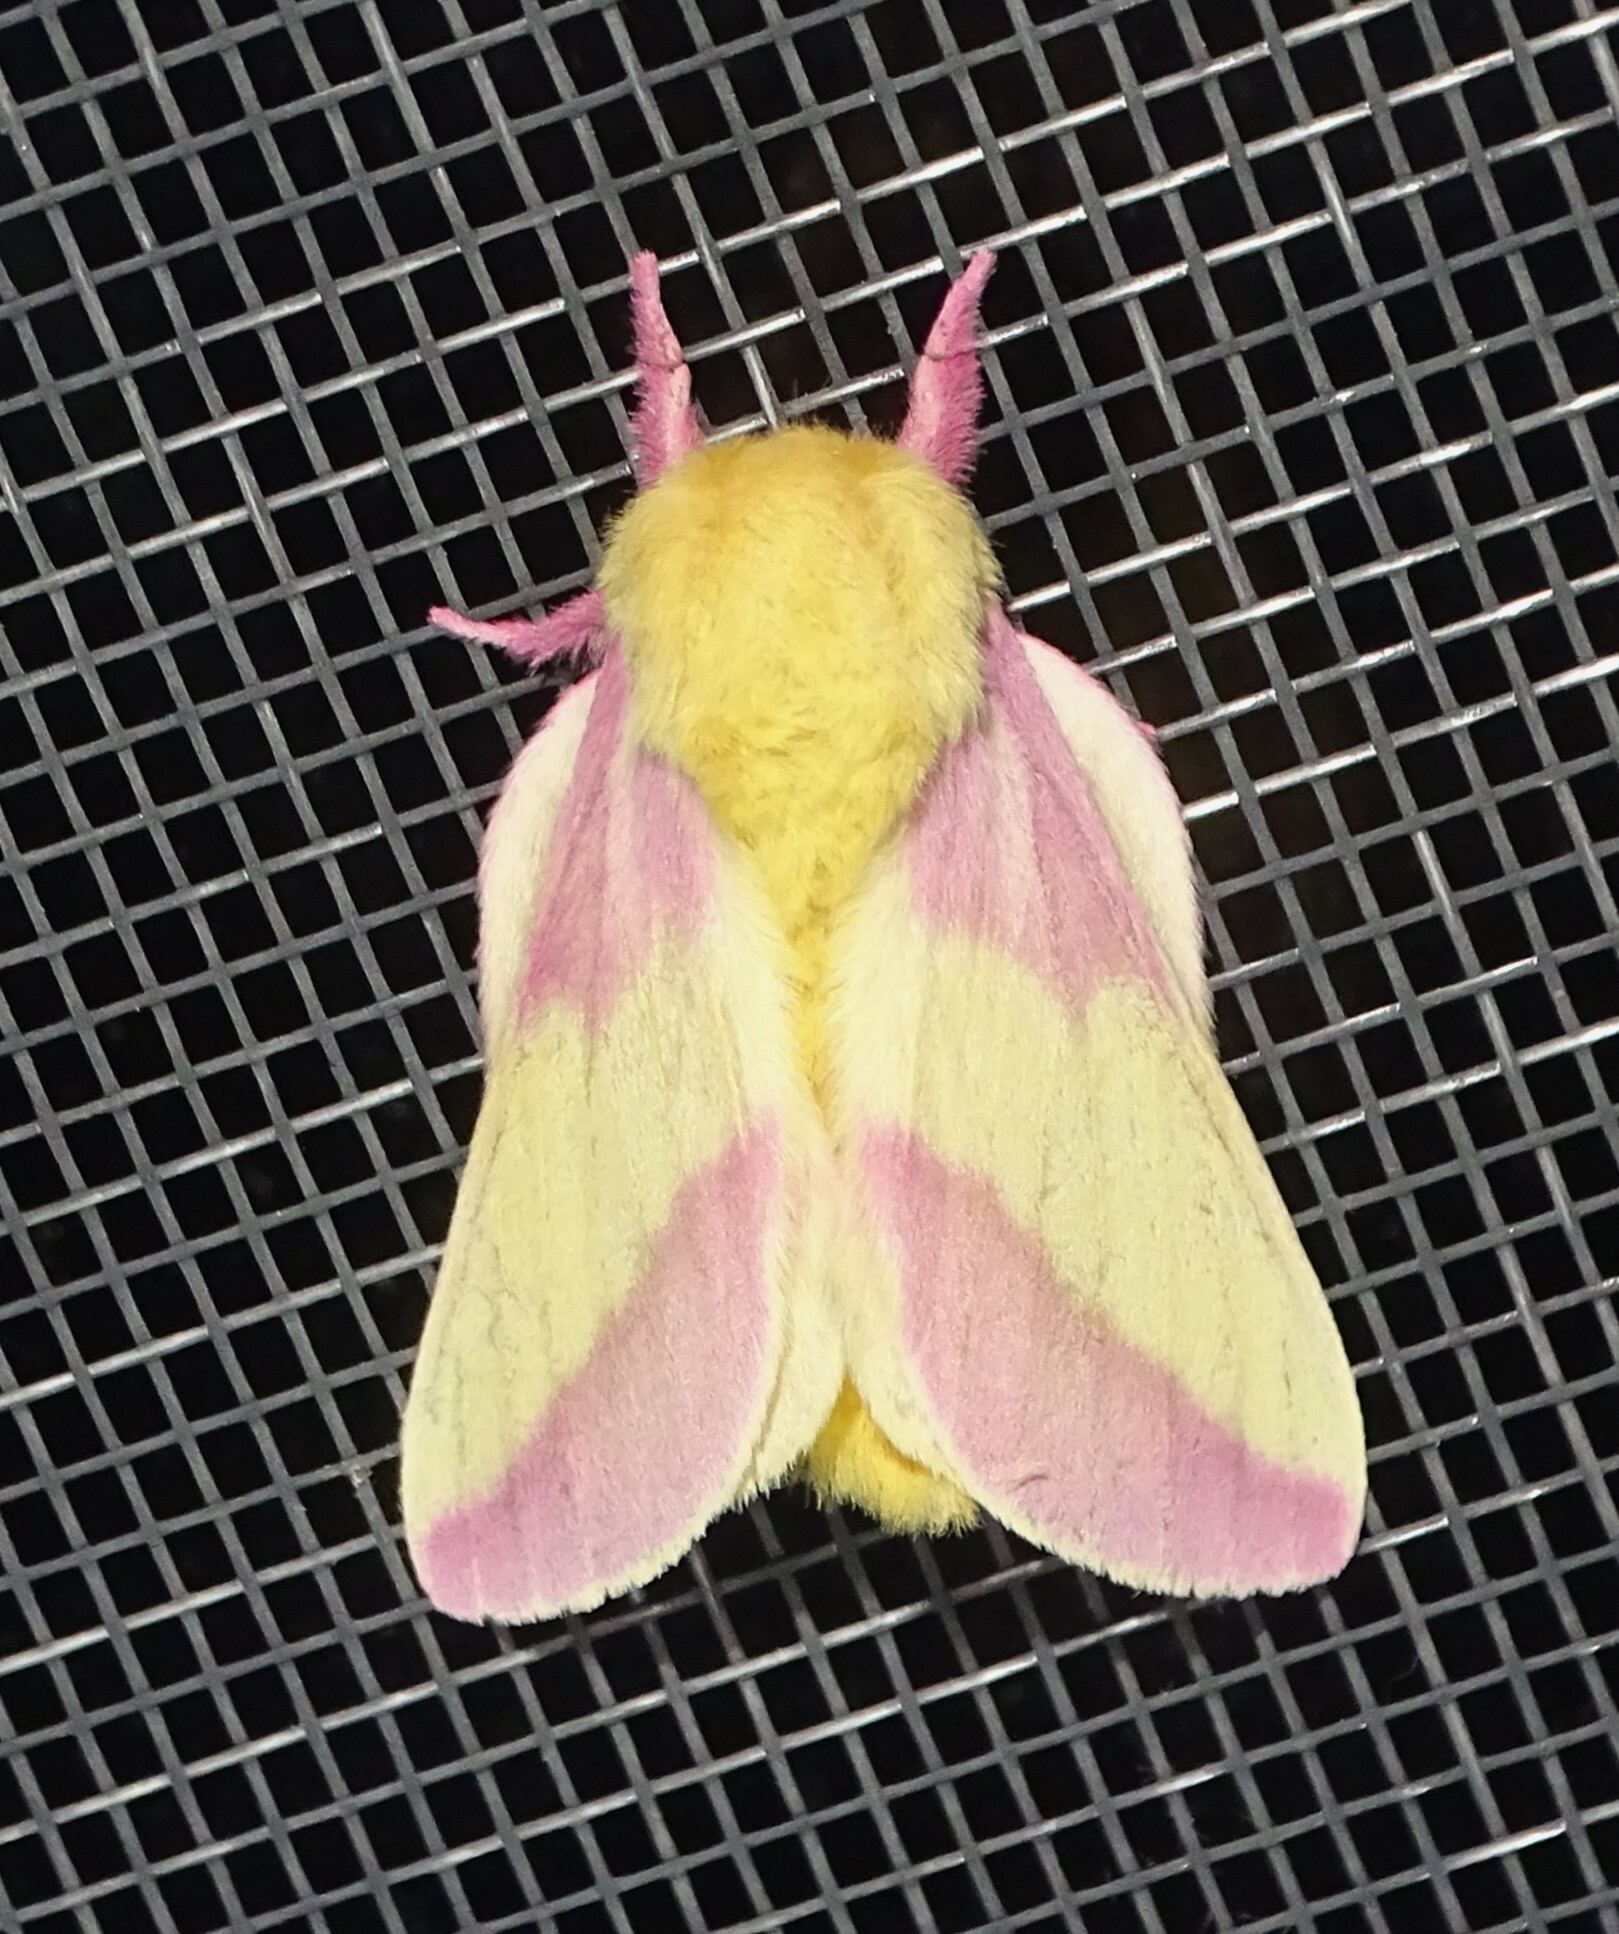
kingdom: Animalia
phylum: Arthropoda
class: Insecta
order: Lepidoptera
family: Saturniidae
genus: Dryocampa
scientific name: Dryocampa rubicunda
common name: Rosy maple moth
